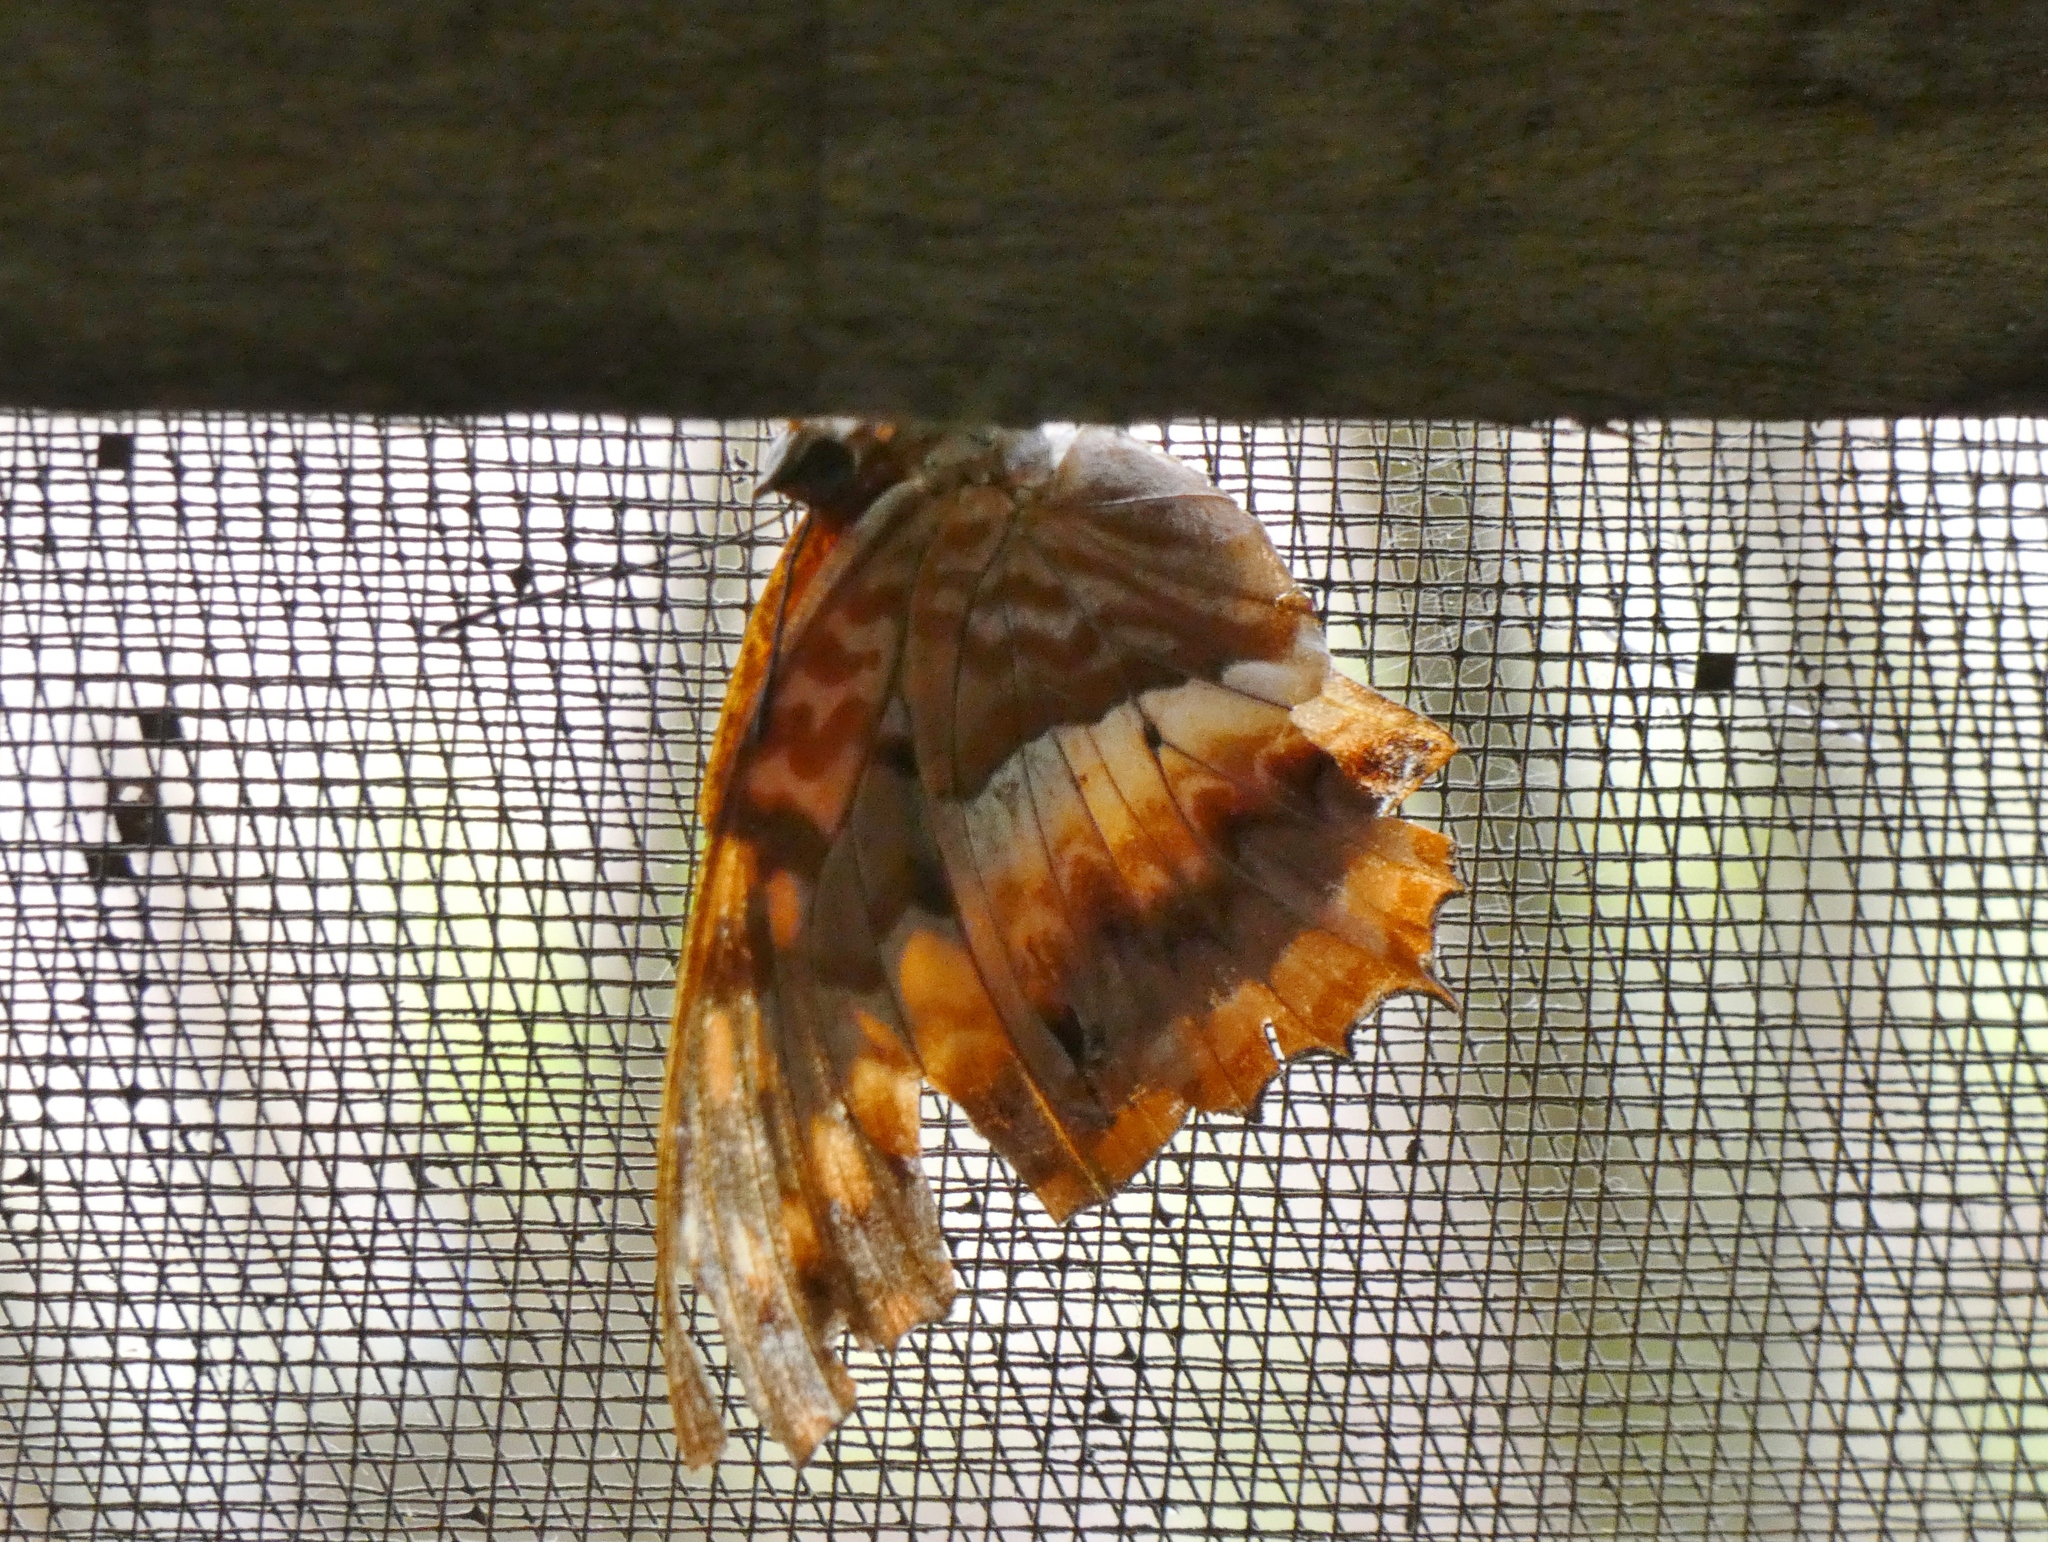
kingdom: Animalia
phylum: Arthropoda
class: Insecta
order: Lepidoptera
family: Nymphalidae
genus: Charaxes
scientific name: Charaxes cynthia
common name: Western red charaxes
